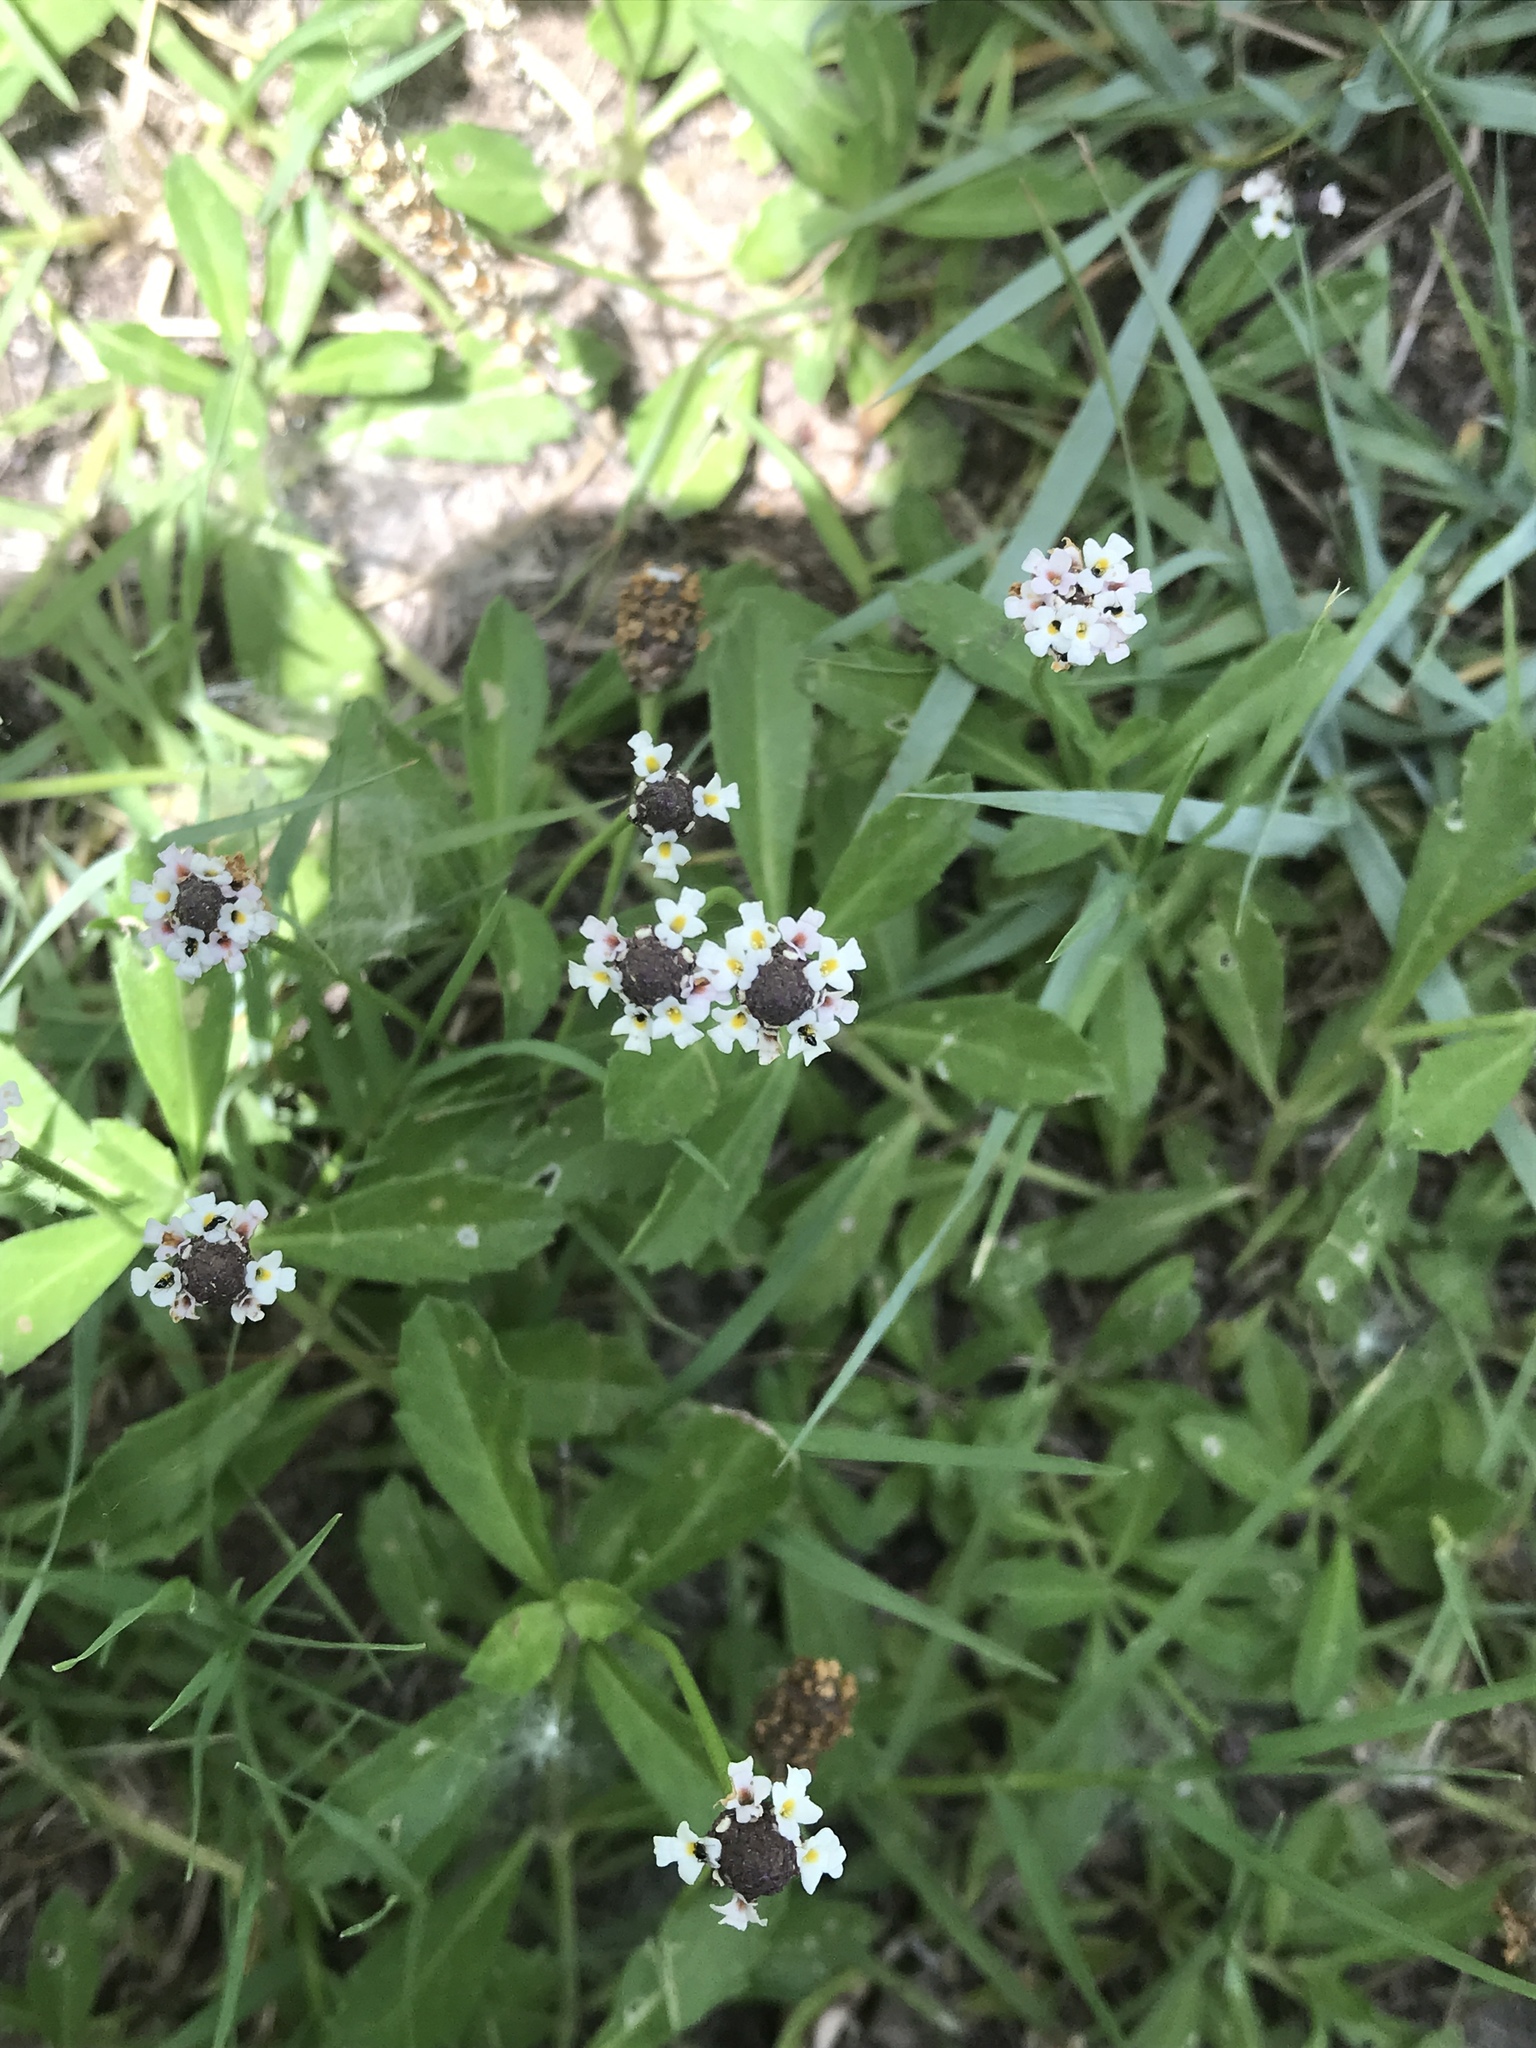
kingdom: Plantae
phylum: Tracheophyta
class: Magnoliopsida
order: Lamiales
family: Verbenaceae
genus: Phyla
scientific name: Phyla nodiflora
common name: Frogfruit
